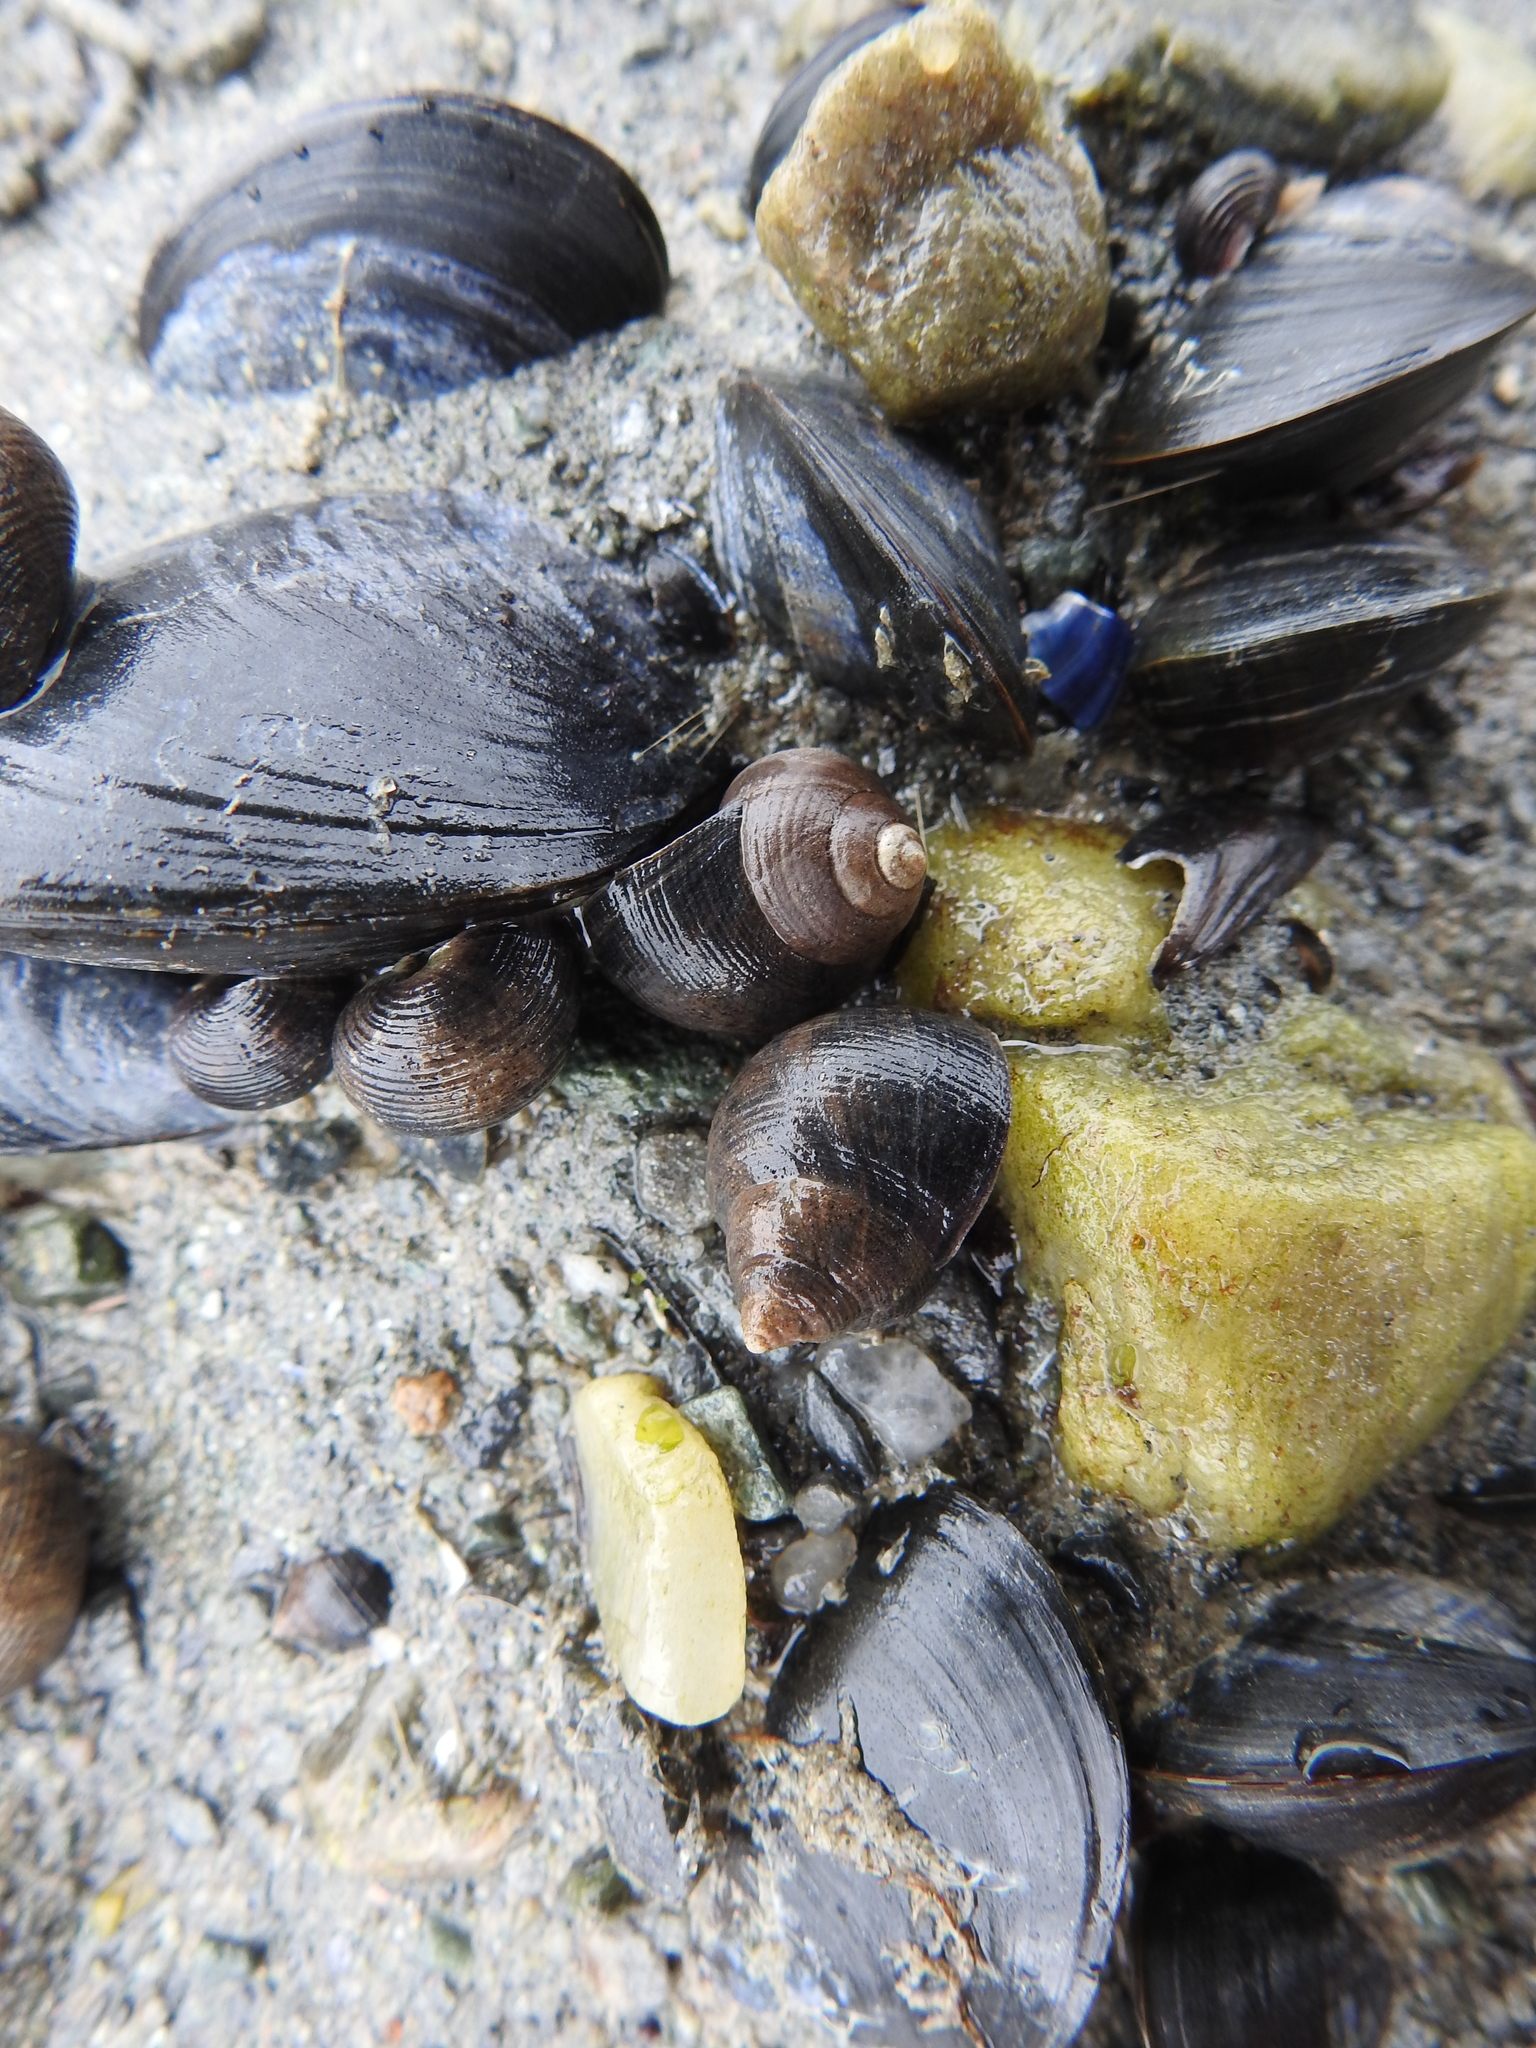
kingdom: Animalia
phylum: Mollusca
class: Gastropoda
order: Littorinimorpha
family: Littorinidae
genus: Littorina
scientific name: Littorina littorea
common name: Common periwinkle
